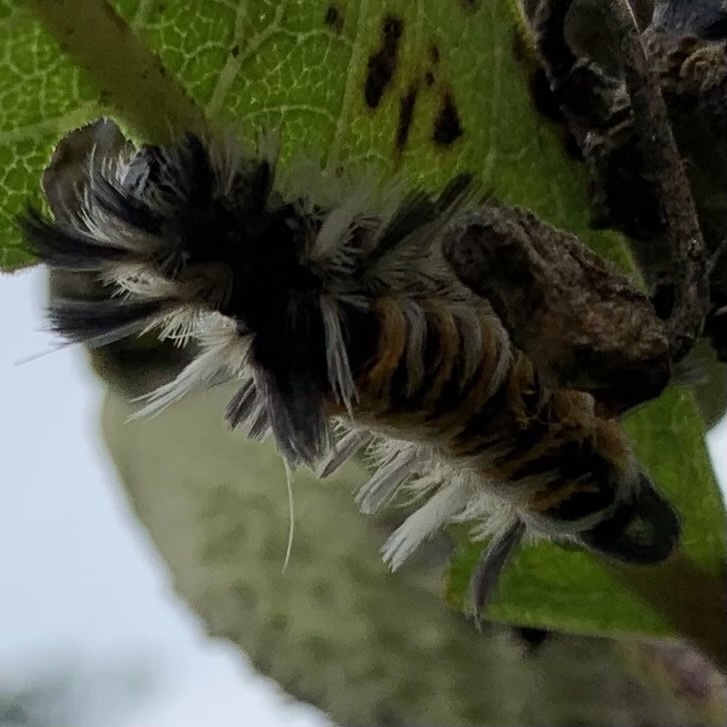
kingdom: Animalia
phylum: Arthropoda
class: Insecta
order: Lepidoptera
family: Erebidae
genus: Euchaetes
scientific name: Euchaetes egle
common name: Milkweed tussock moth
